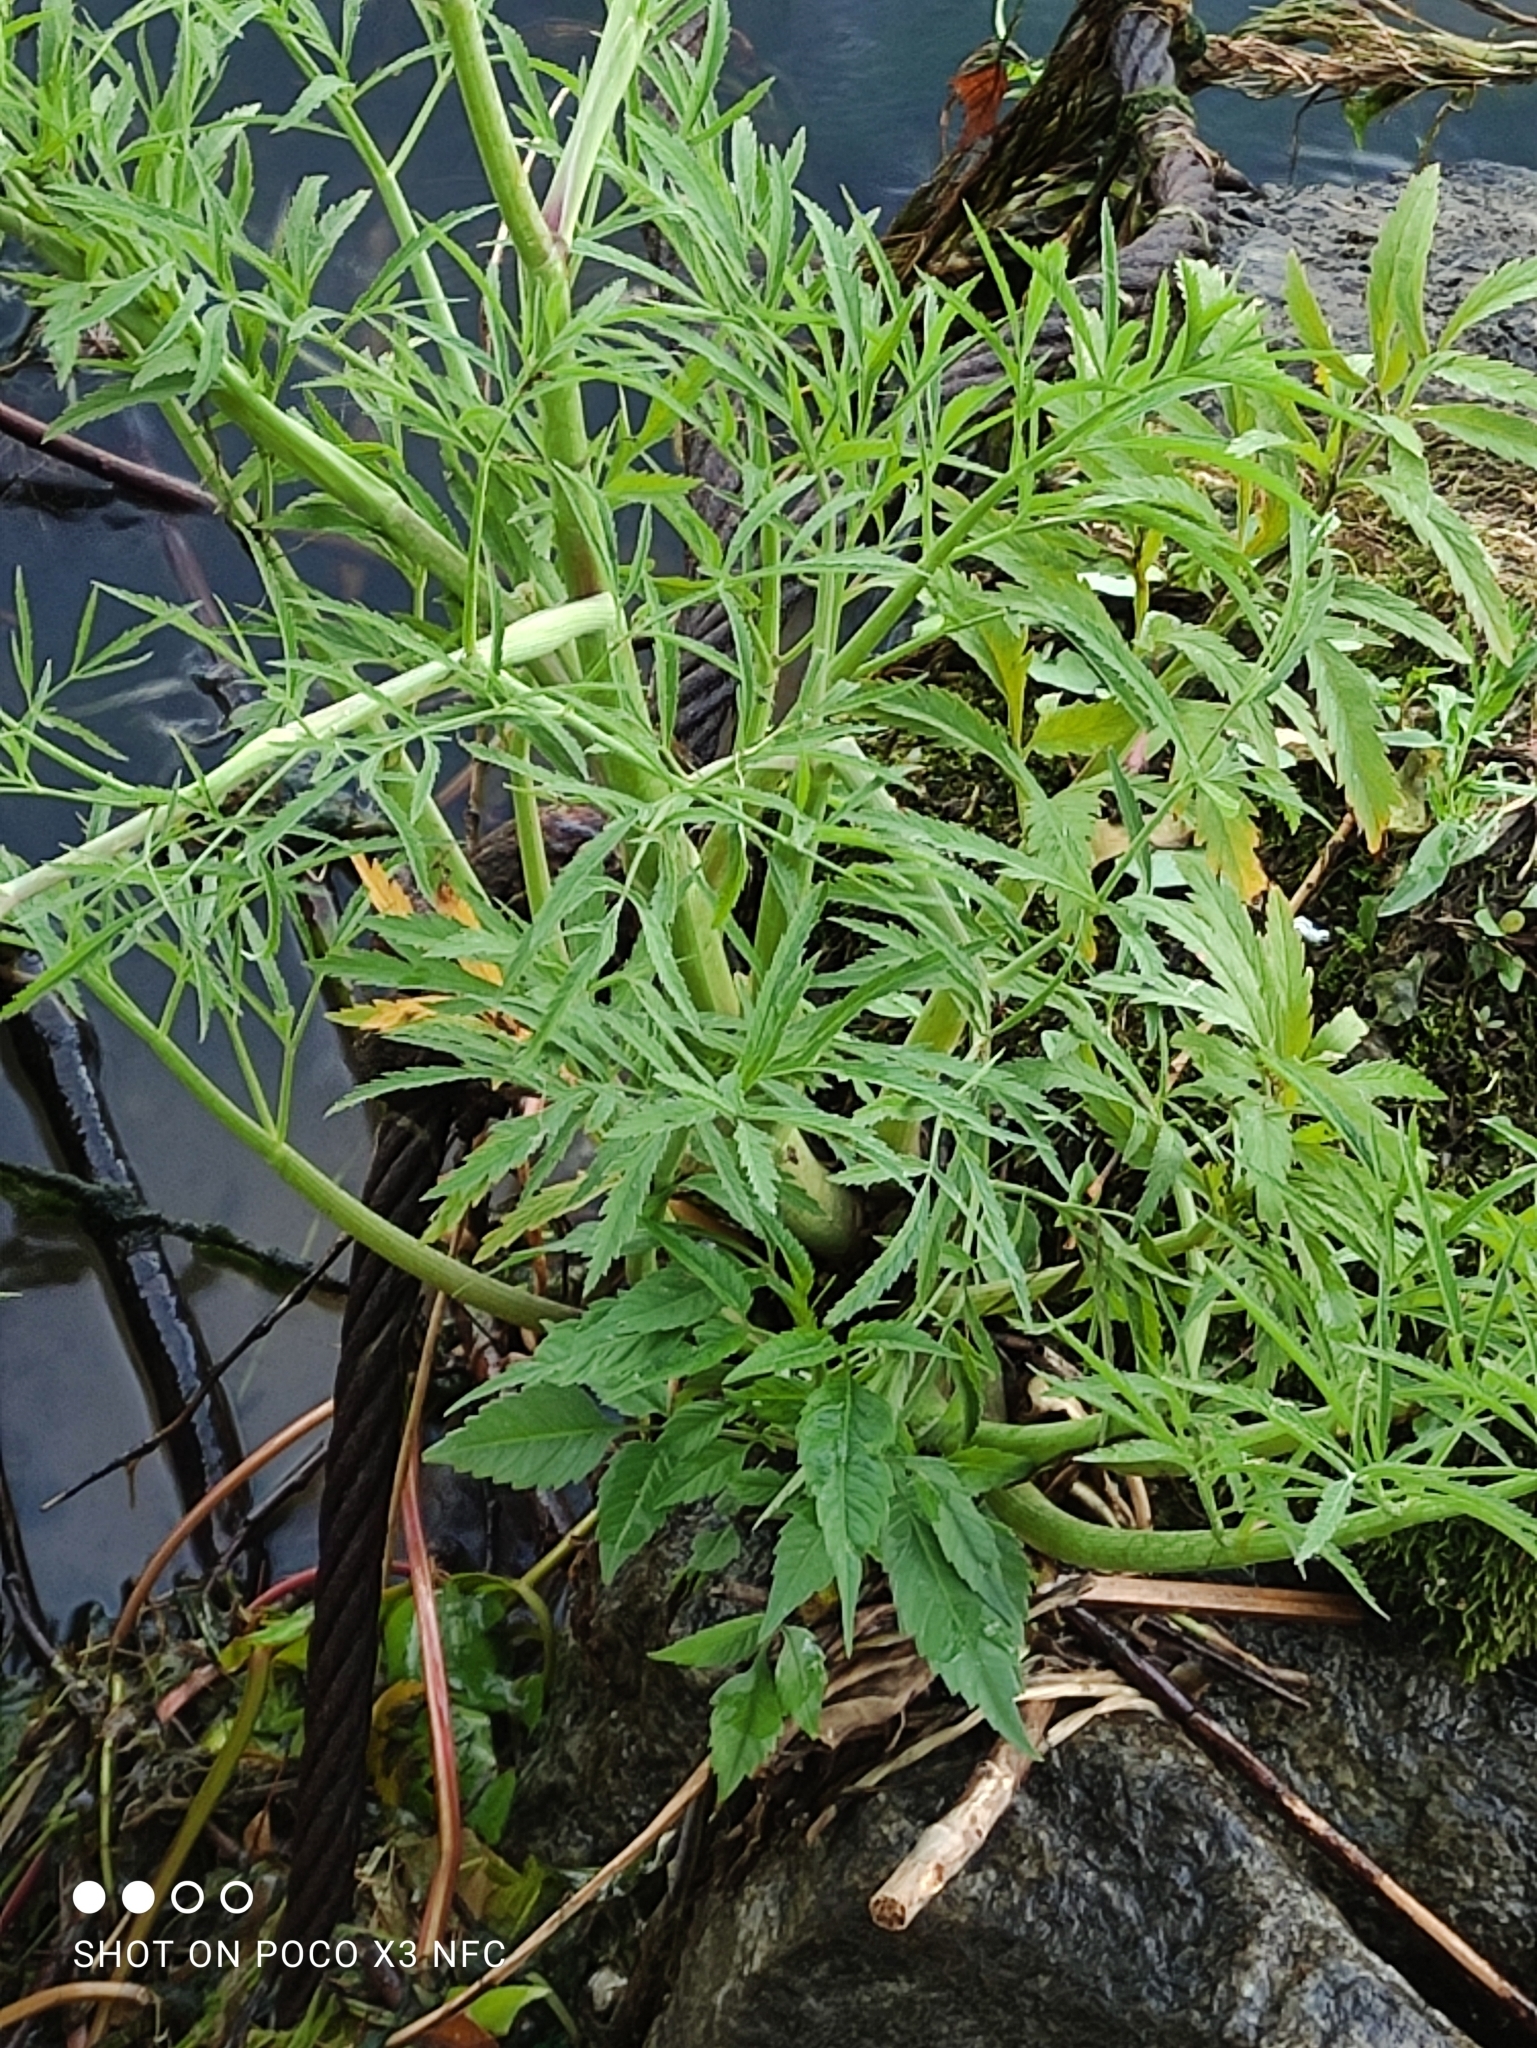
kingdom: Plantae
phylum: Tracheophyta
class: Magnoliopsida
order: Apiales
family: Apiaceae
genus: Cicuta
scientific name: Cicuta virosa
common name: Cowbane
